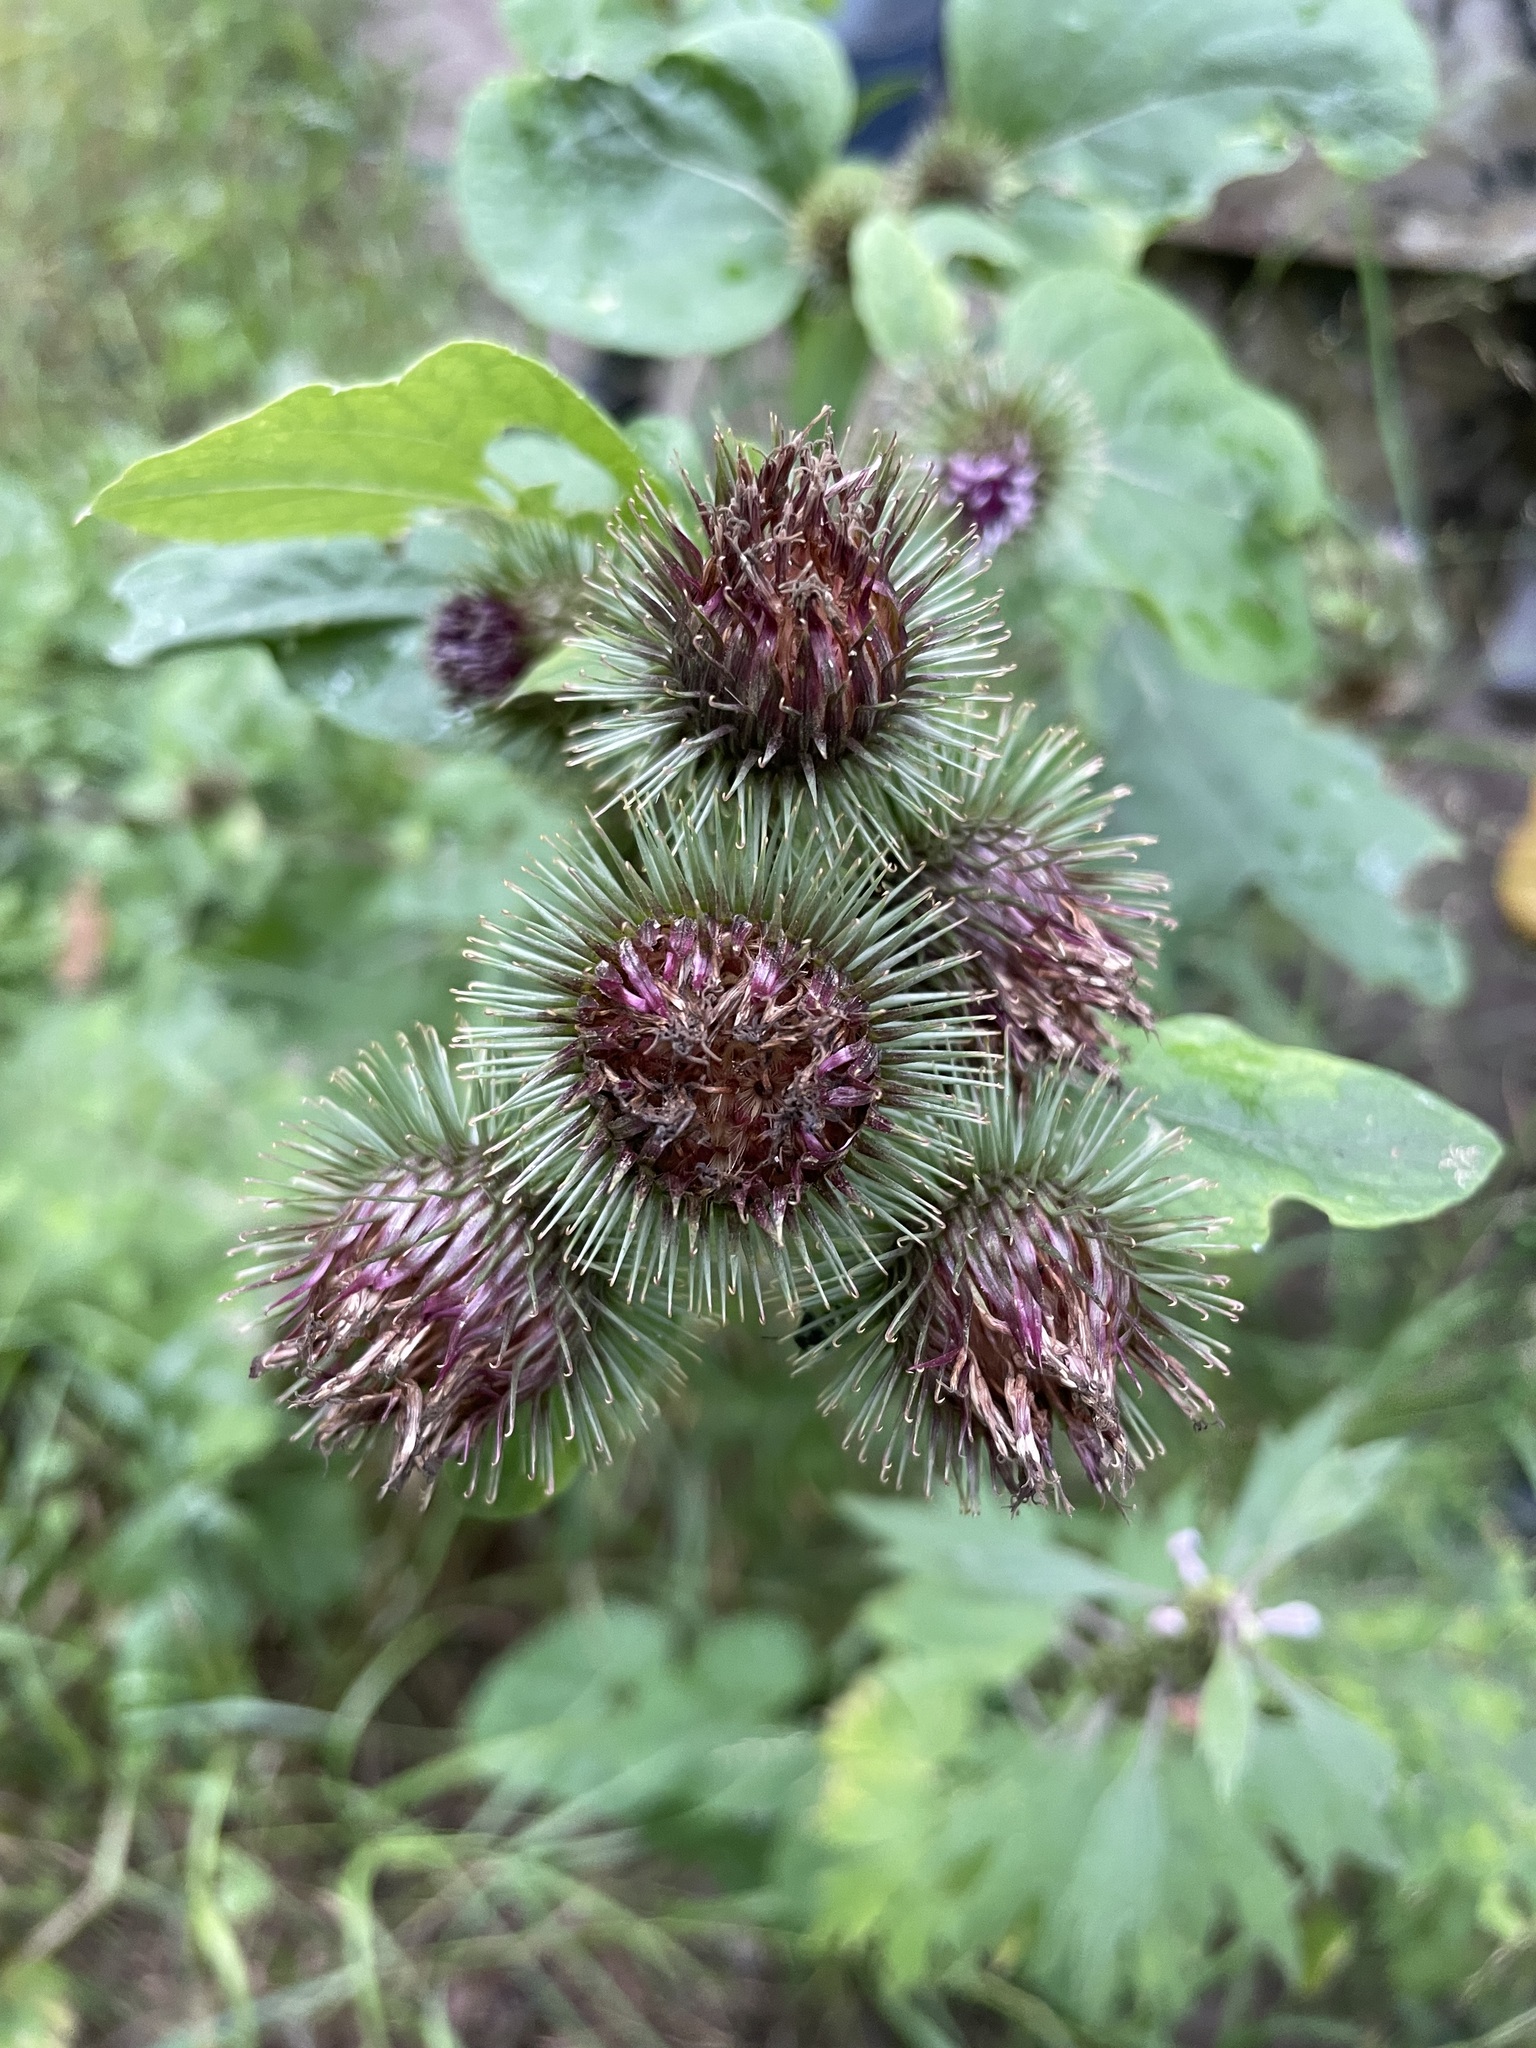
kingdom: Plantae
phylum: Tracheophyta
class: Magnoliopsida
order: Asterales
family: Asteraceae
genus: Arctium
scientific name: Arctium lappa
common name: Greater burdock
